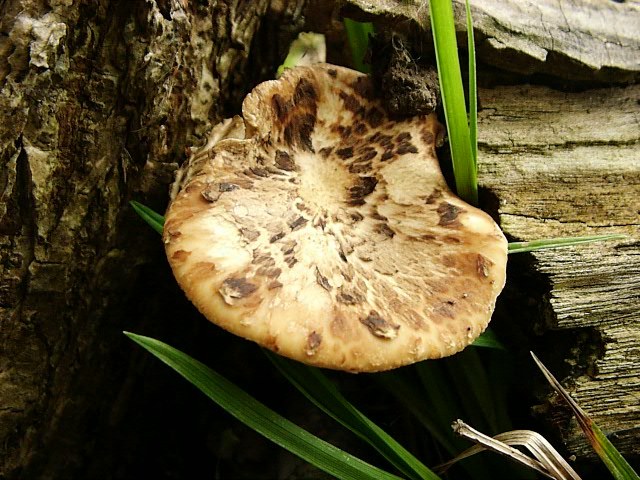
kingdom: Fungi
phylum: Basidiomycota
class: Agaricomycetes
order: Polyporales
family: Polyporaceae
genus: Cerioporus
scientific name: Cerioporus squamosus
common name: Dryad's saddle
